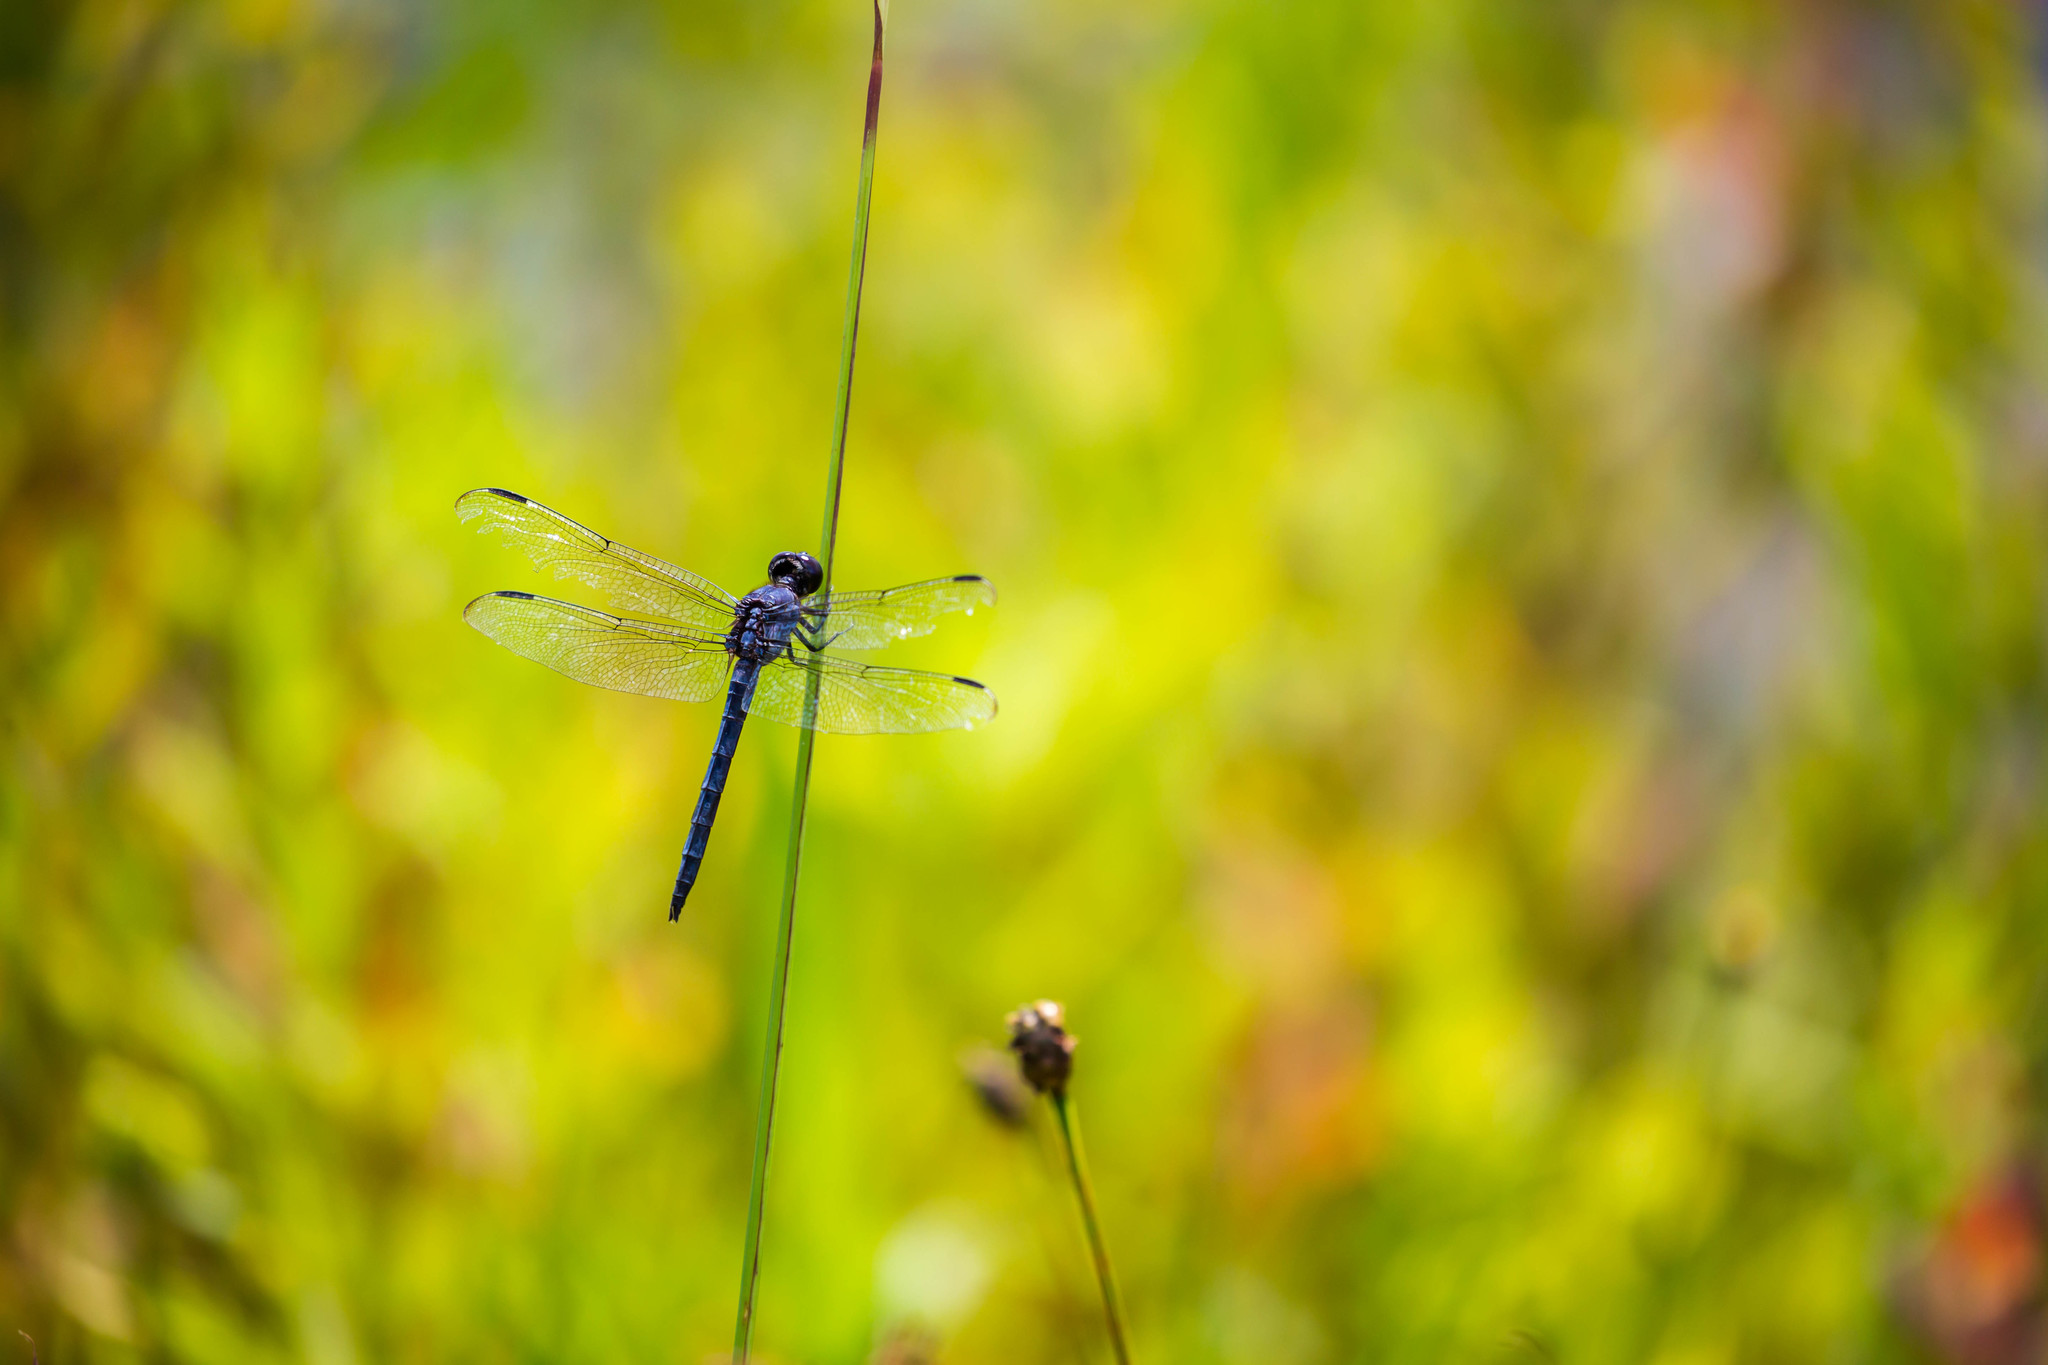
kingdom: Animalia
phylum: Arthropoda
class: Insecta
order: Odonata
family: Libellulidae
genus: Libellula
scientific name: Libellula incesta
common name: Slaty skimmer
